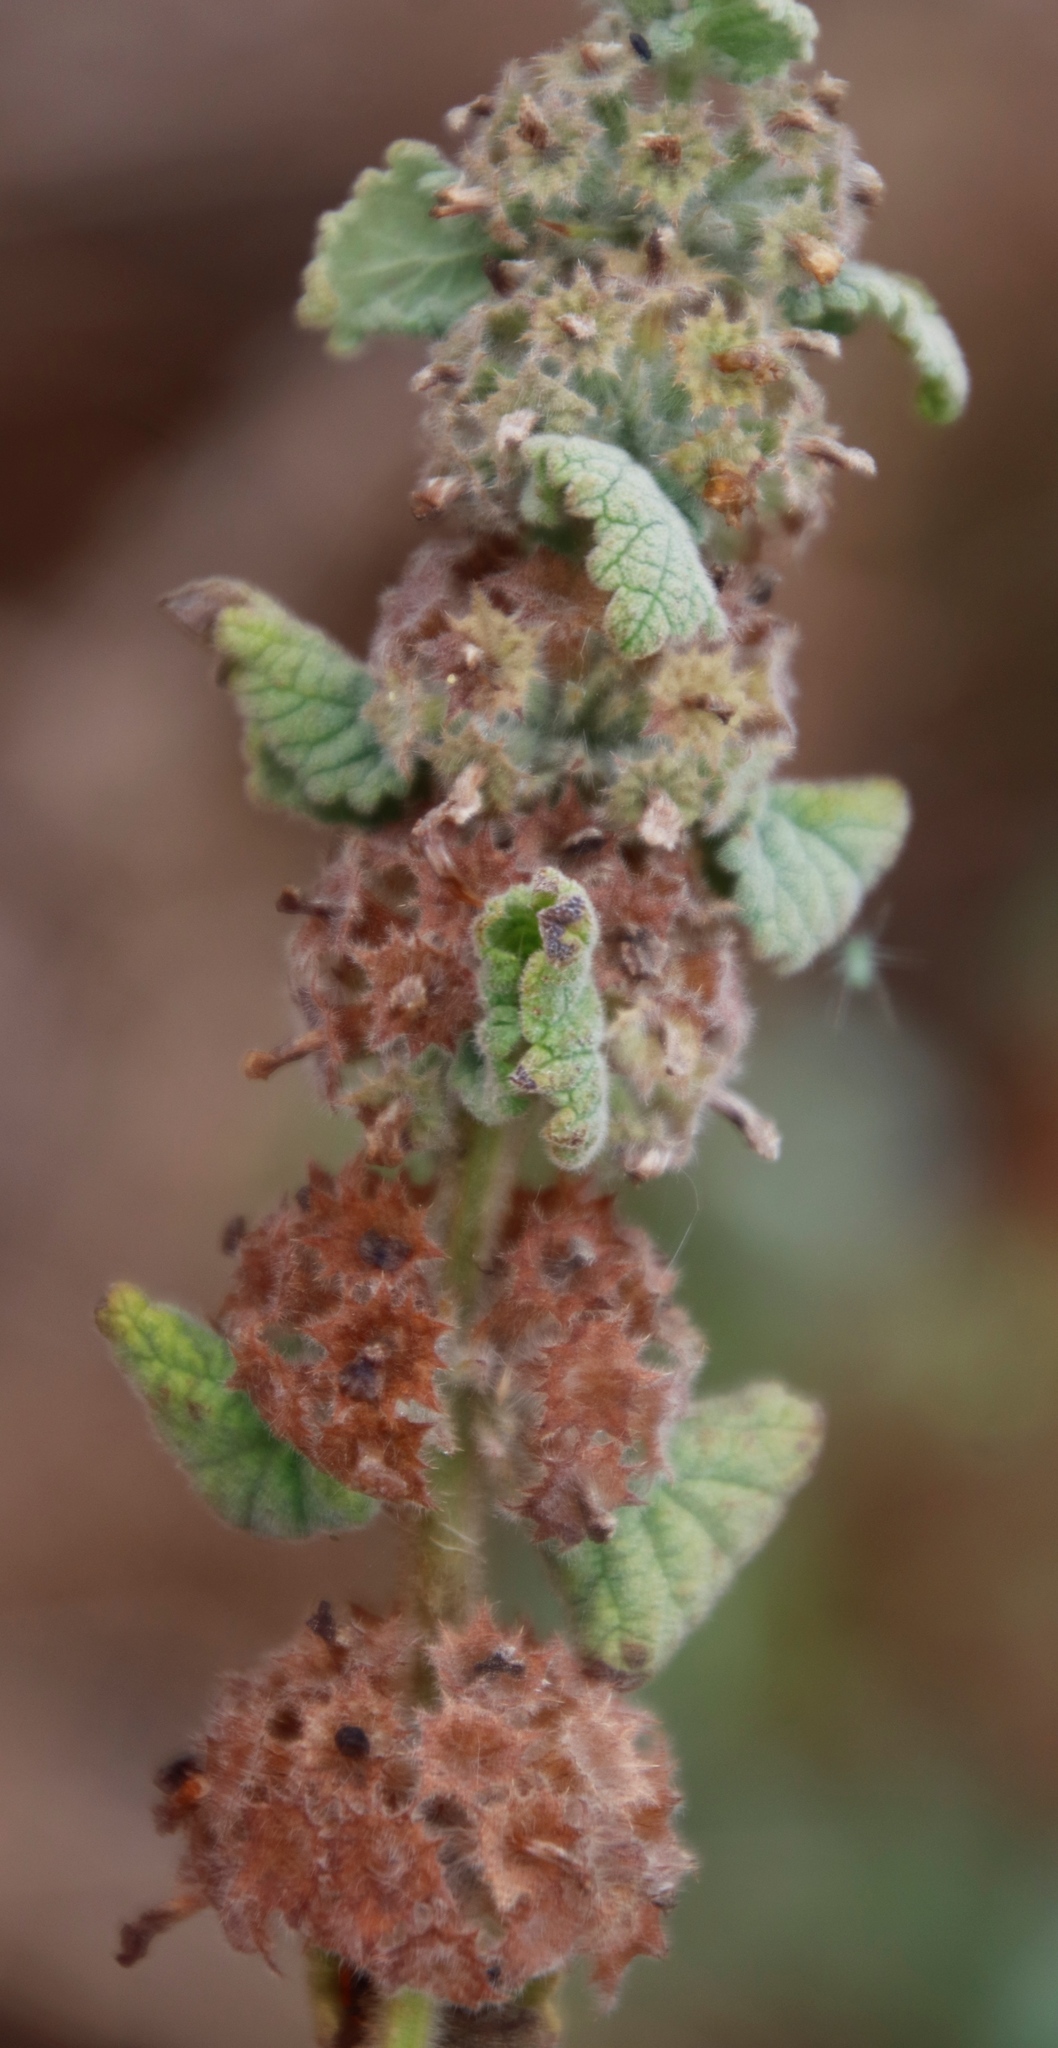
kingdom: Plantae
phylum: Tracheophyta
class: Magnoliopsida
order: Lamiales
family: Lamiaceae
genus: Pseudodictamnus
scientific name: Pseudodictamnus africanus
